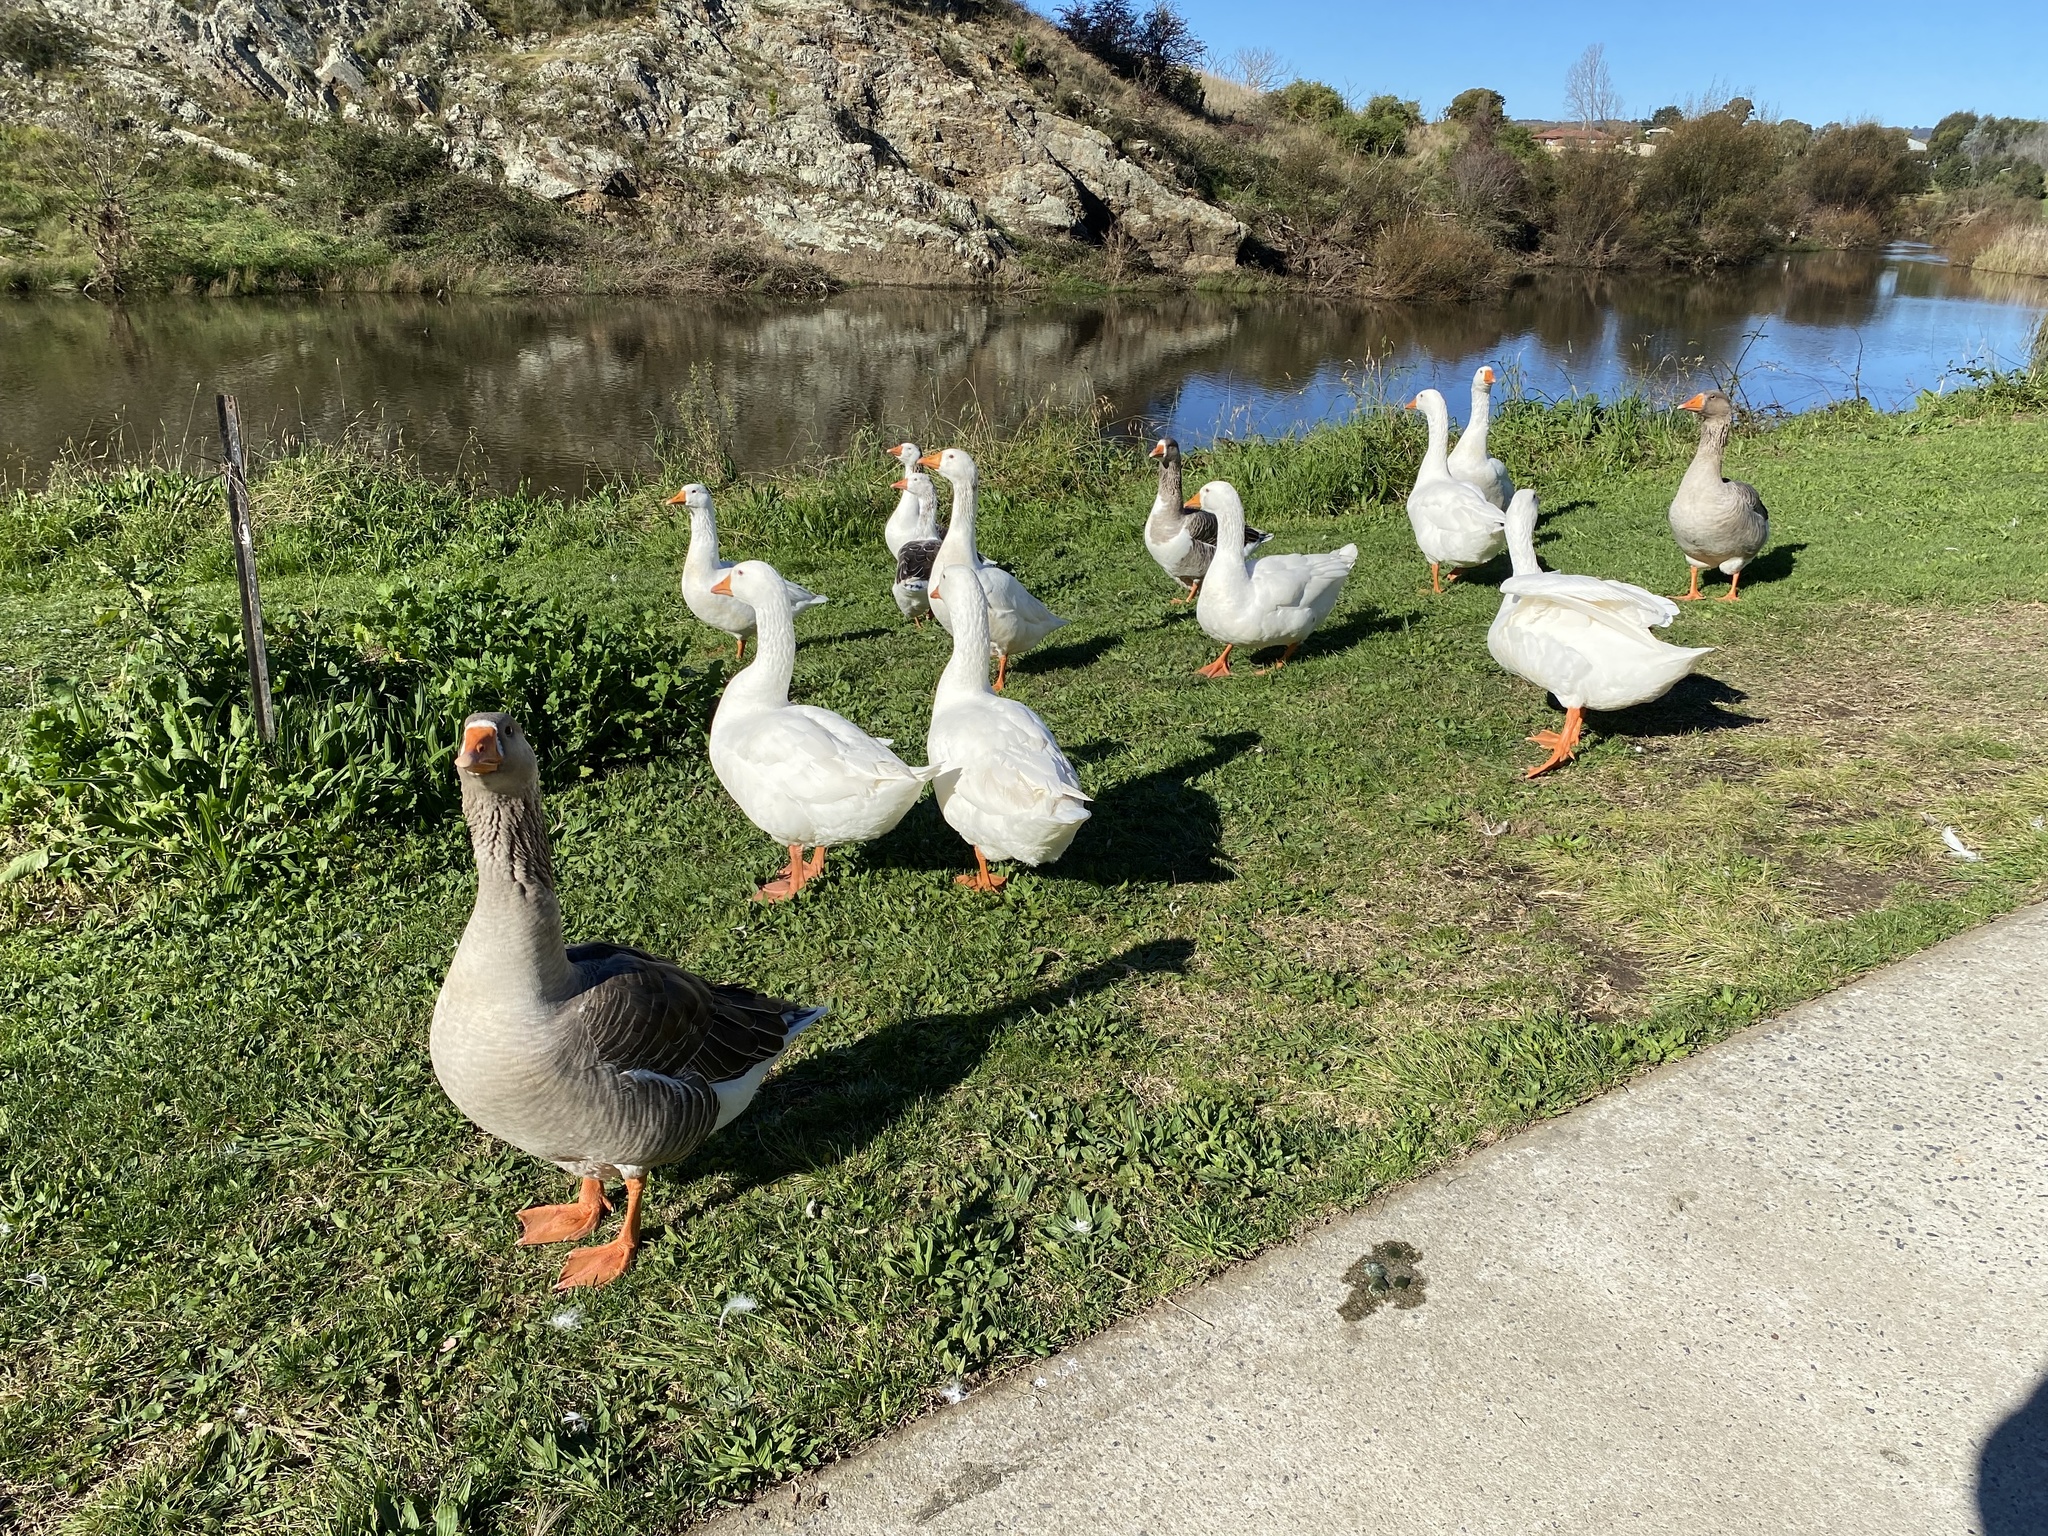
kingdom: Animalia
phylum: Chordata
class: Aves
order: Anseriformes
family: Anatidae
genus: Anser
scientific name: Anser anser
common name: Greylag goose
